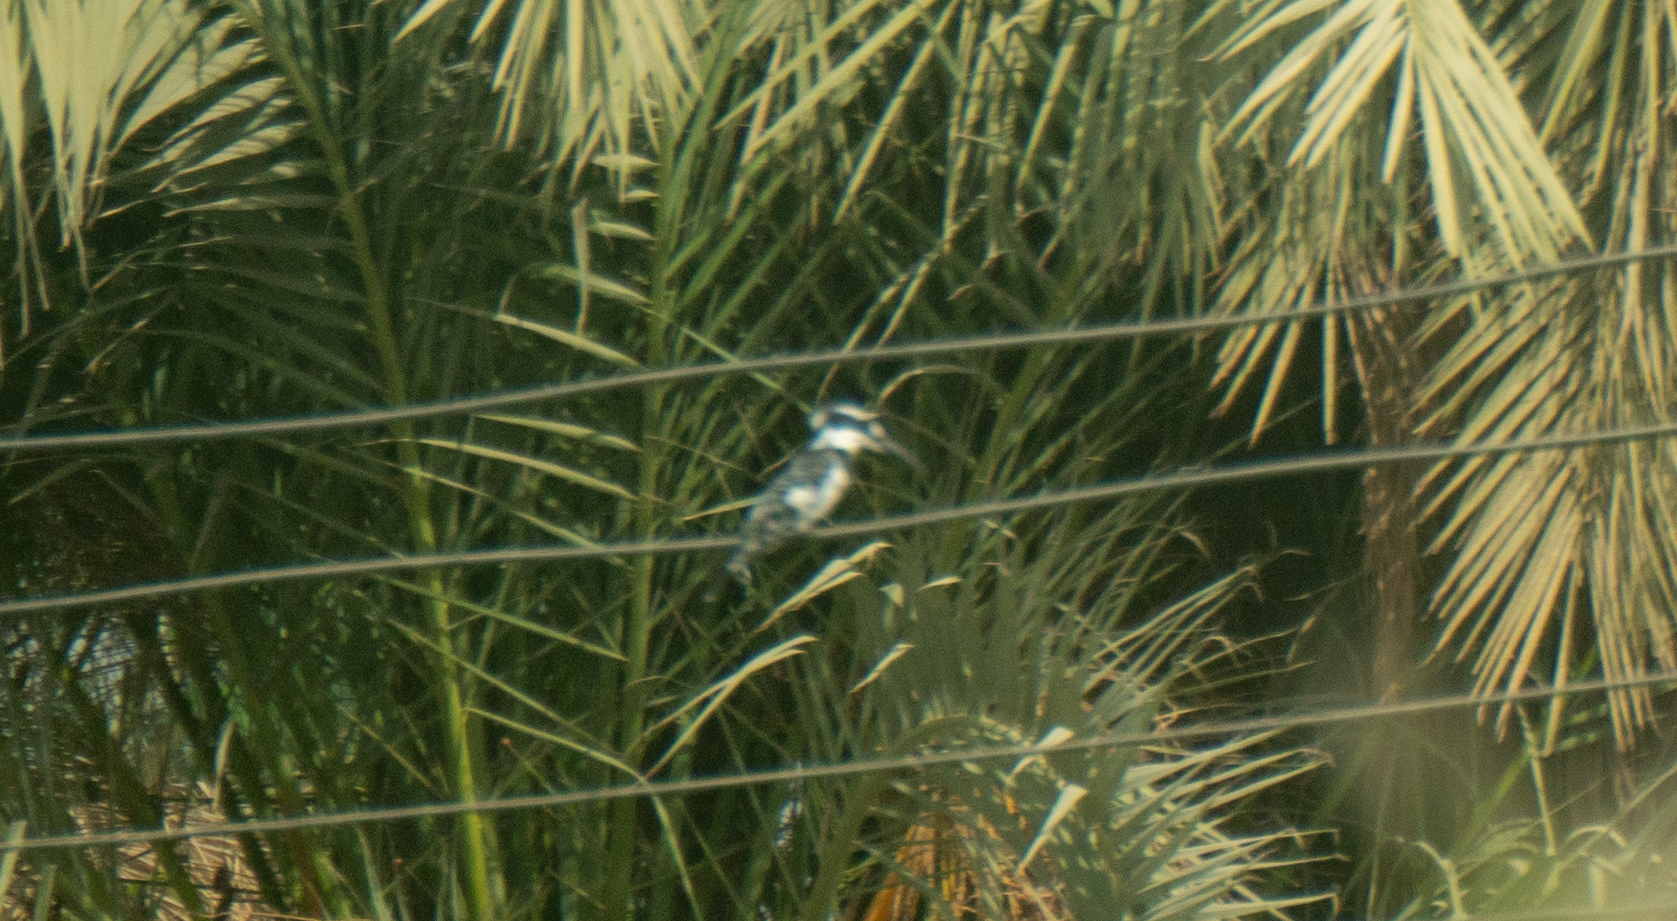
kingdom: Animalia
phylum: Chordata
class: Aves
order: Coraciiformes
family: Alcedinidae
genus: Ceryle
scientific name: Ceryle rudis
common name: Pied kingfisher
